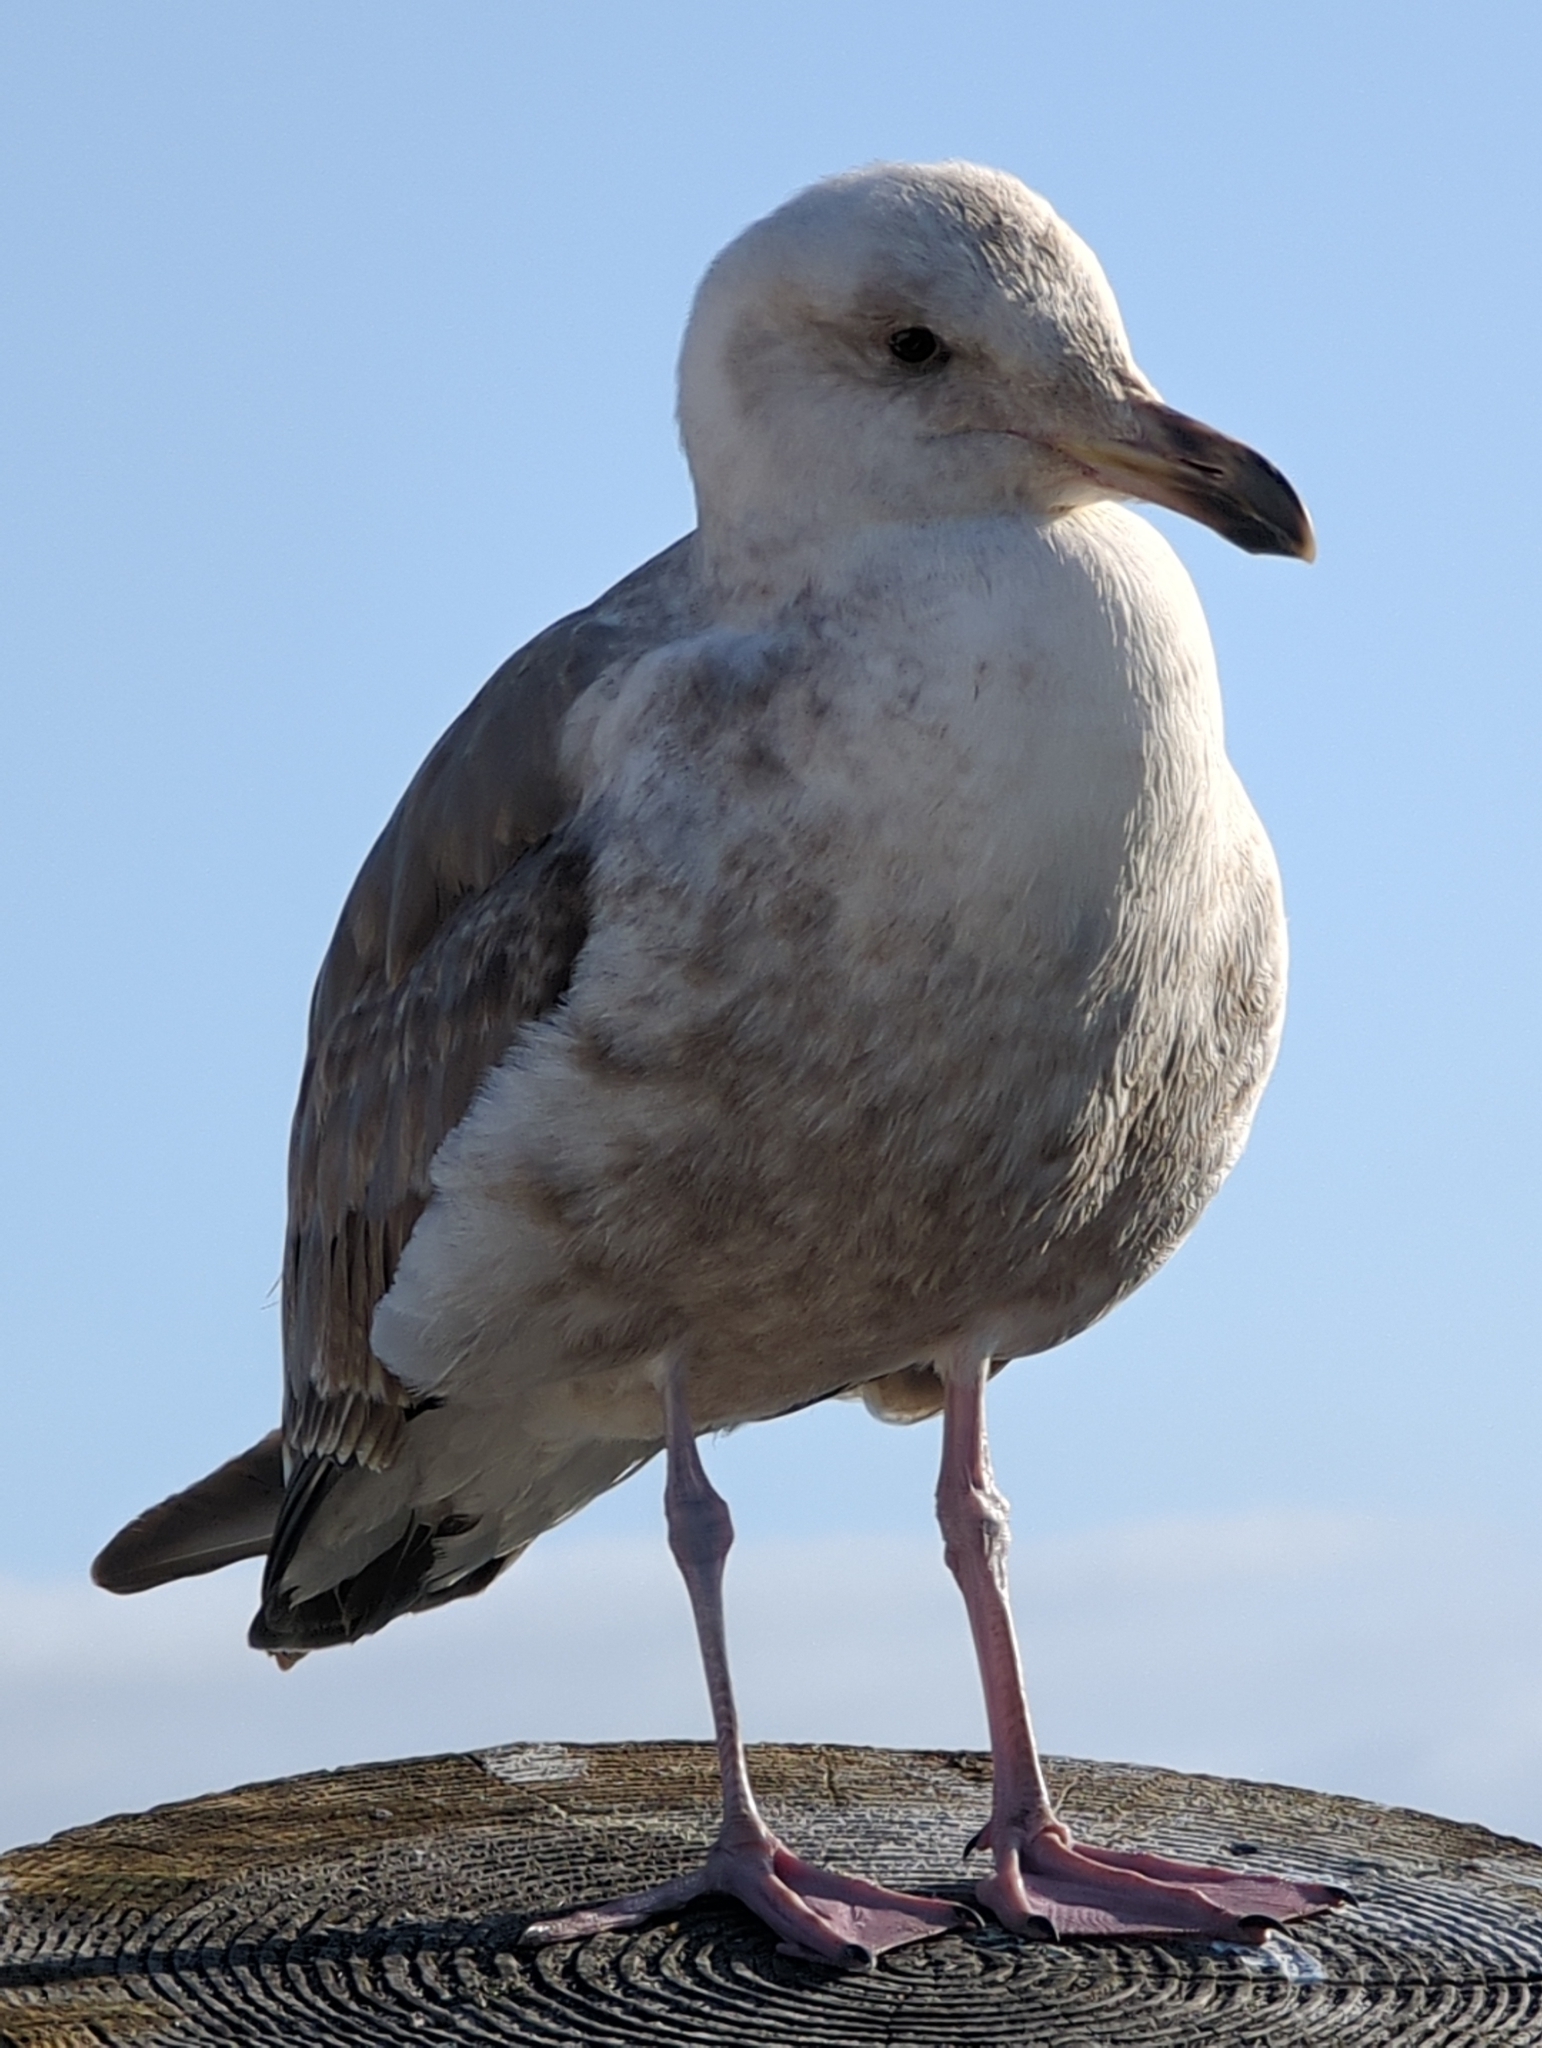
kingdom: Animalia
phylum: Chordata
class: Aves
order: Charadriiformes
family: Laridae
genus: Larus
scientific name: Larus occidentalis
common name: Western gull
